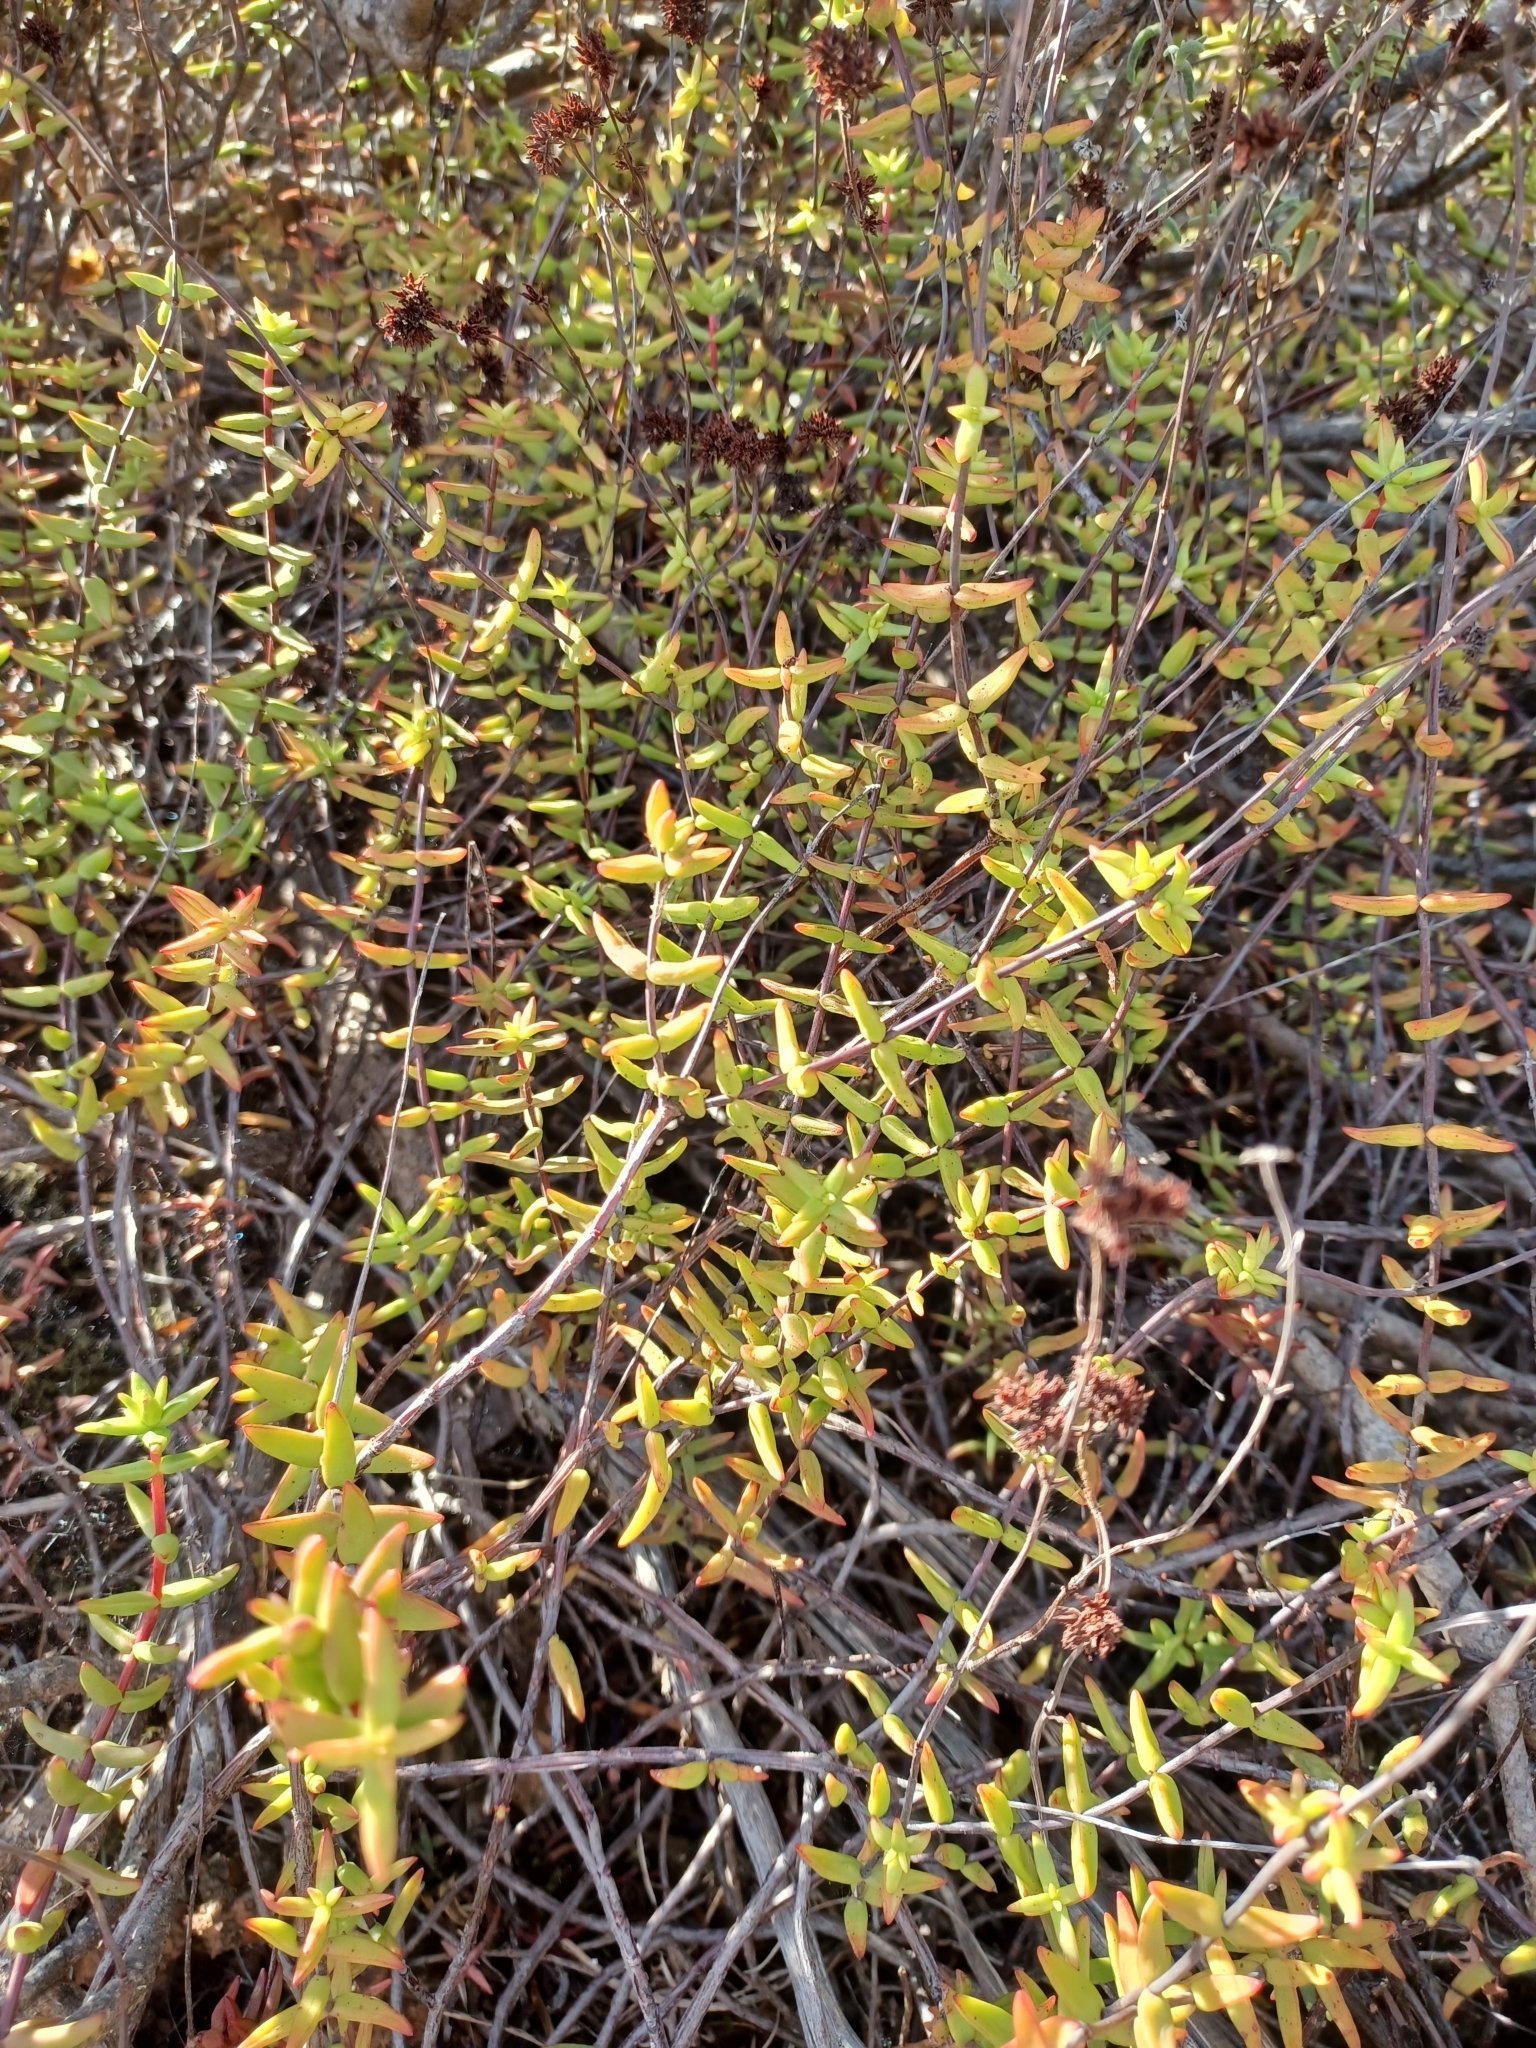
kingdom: Plantae
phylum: Tracheophyta
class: Magnoliopsida
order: Saxifragales
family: Crassulaceae
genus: Crassula
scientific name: Crassula subaphylla
